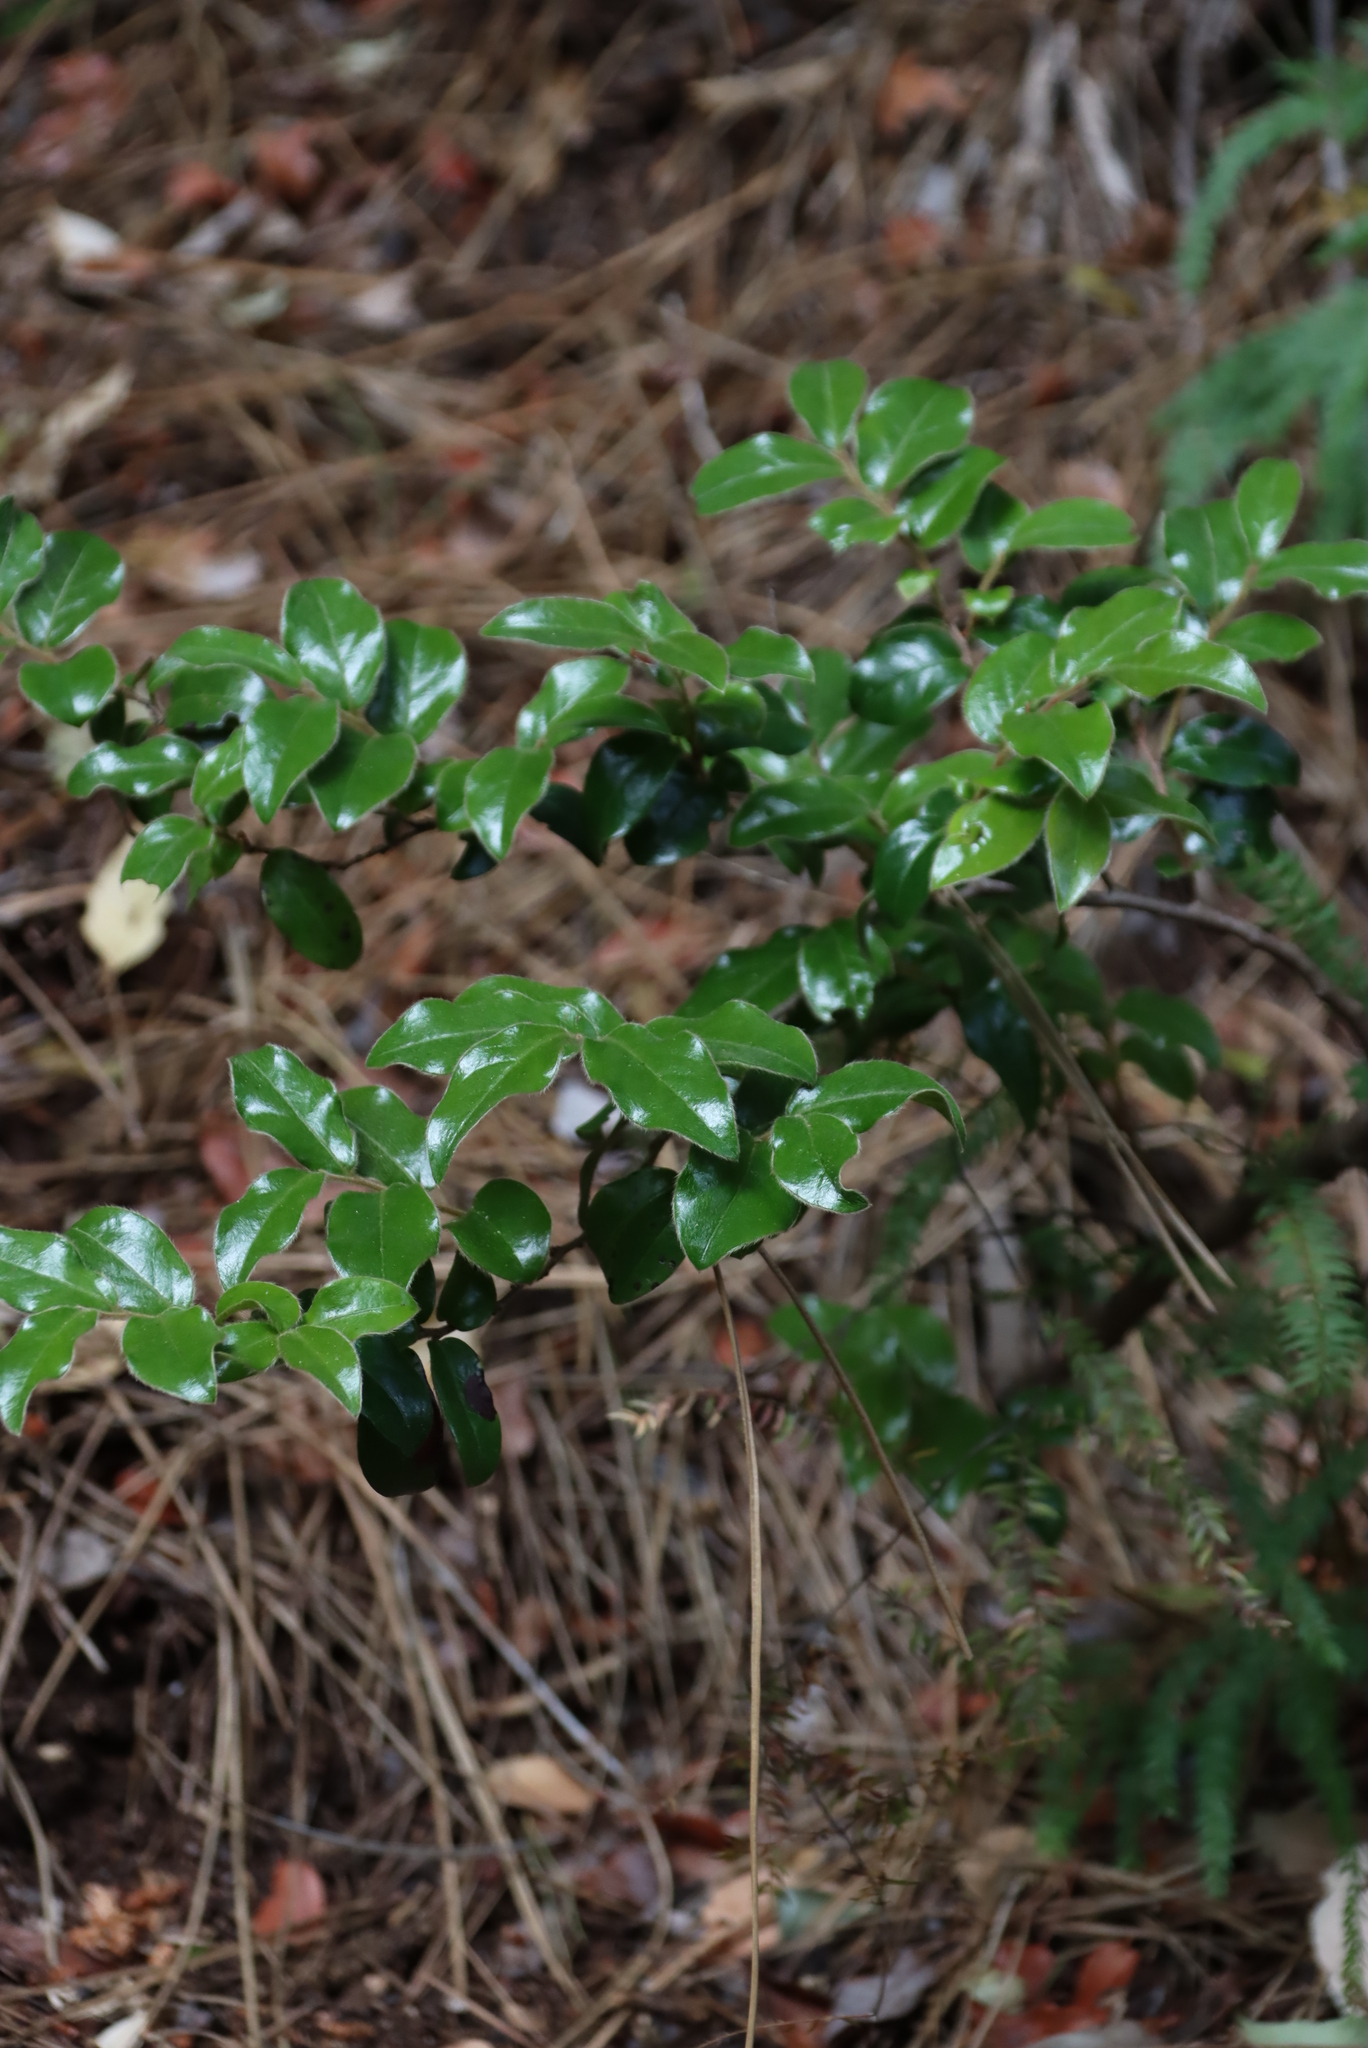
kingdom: Plantae
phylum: Tracheophyta
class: Magnoliopsida
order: Ericales
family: Ebenaceae
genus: Diospyros
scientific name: Diospyros whyteana
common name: Bladder-nut
